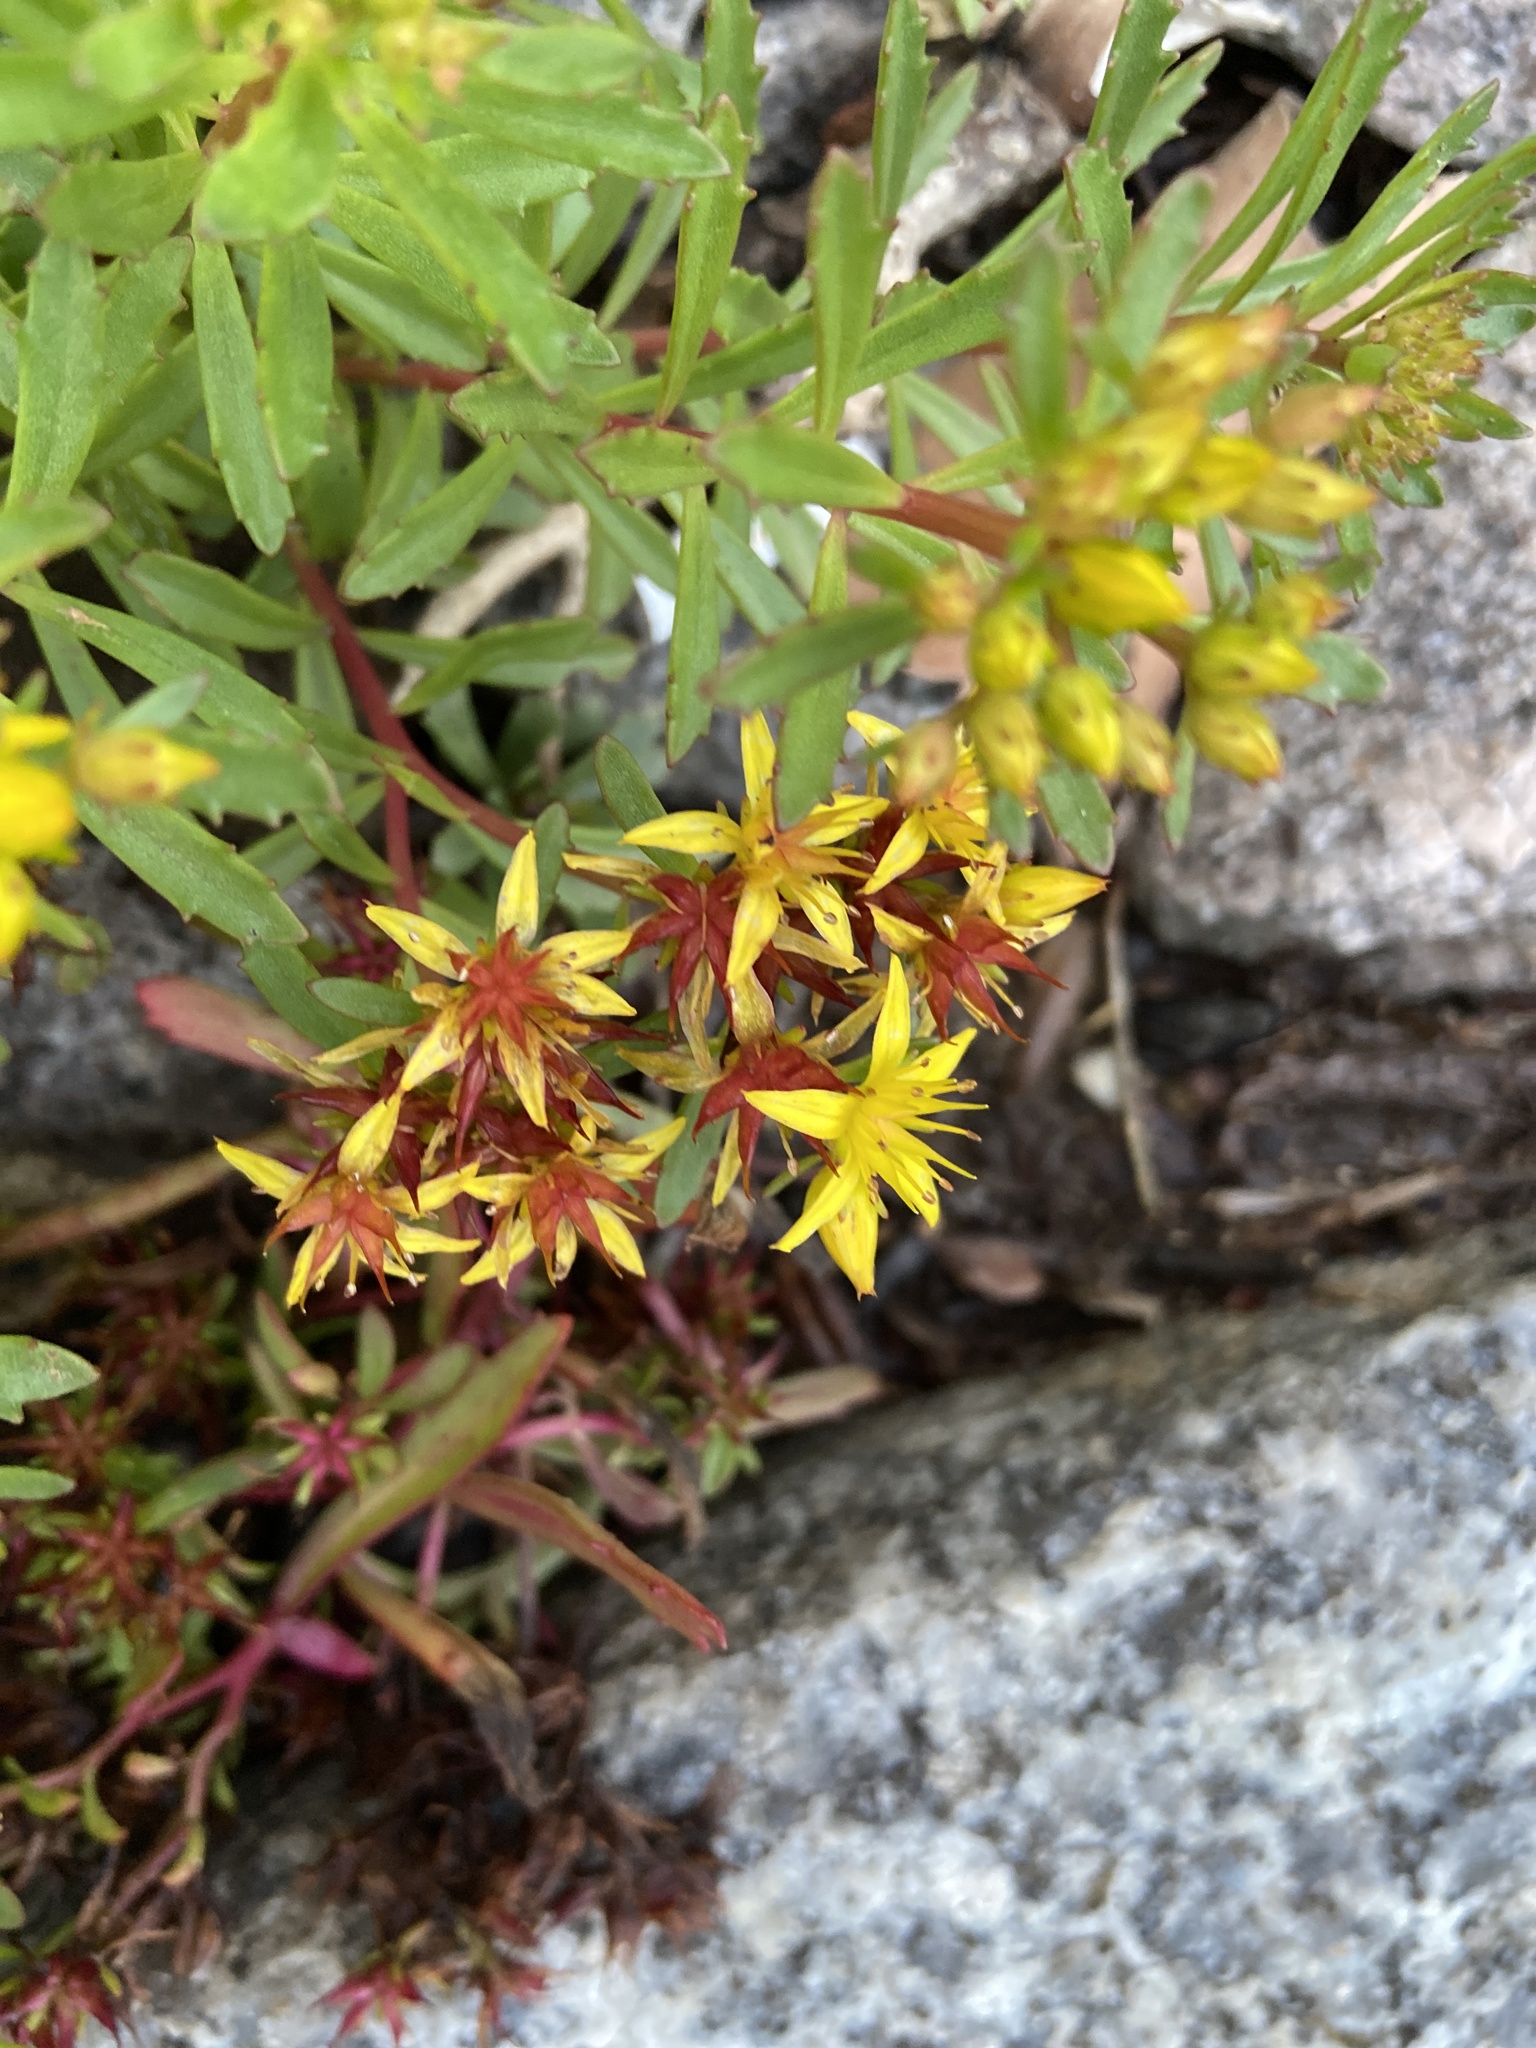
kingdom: Plantae
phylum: Tracheophyta
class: Magnoliopsida
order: Saxifragales
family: Crassulaceae
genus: Phedimus
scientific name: Phedimus kamtschaticus
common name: Orange stonecrop
